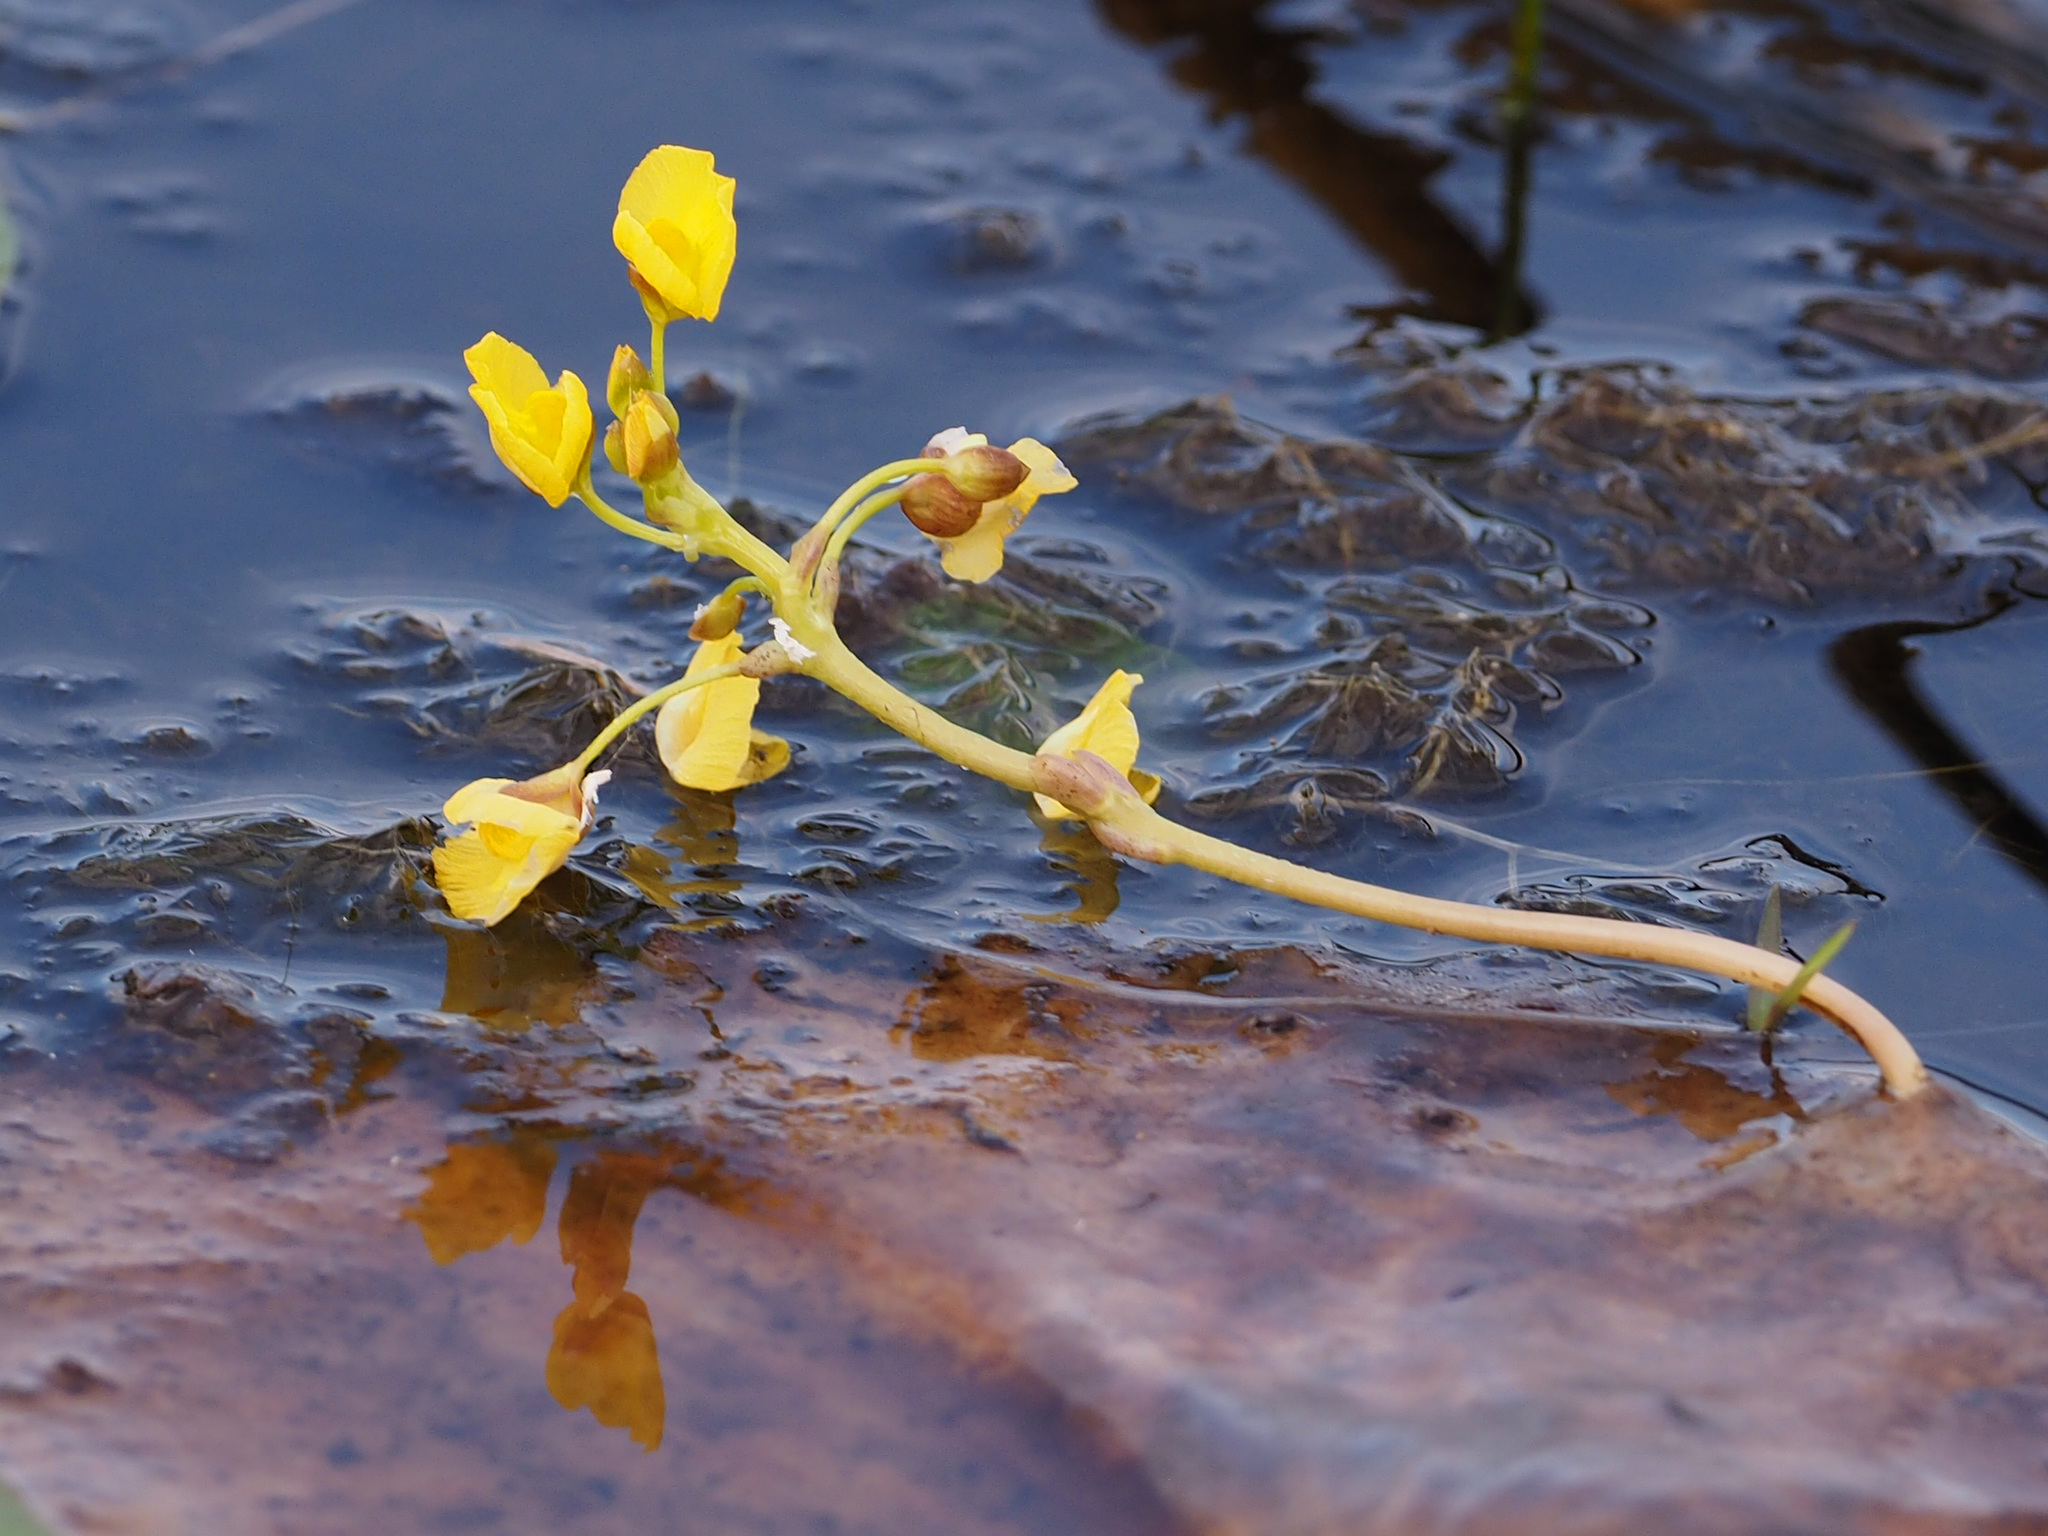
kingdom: Plantae
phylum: Tracheophyta
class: Magnoliopsida
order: Lamiales
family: Lentibulariaceae
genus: Utricularia
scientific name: Utricularia foliosa
